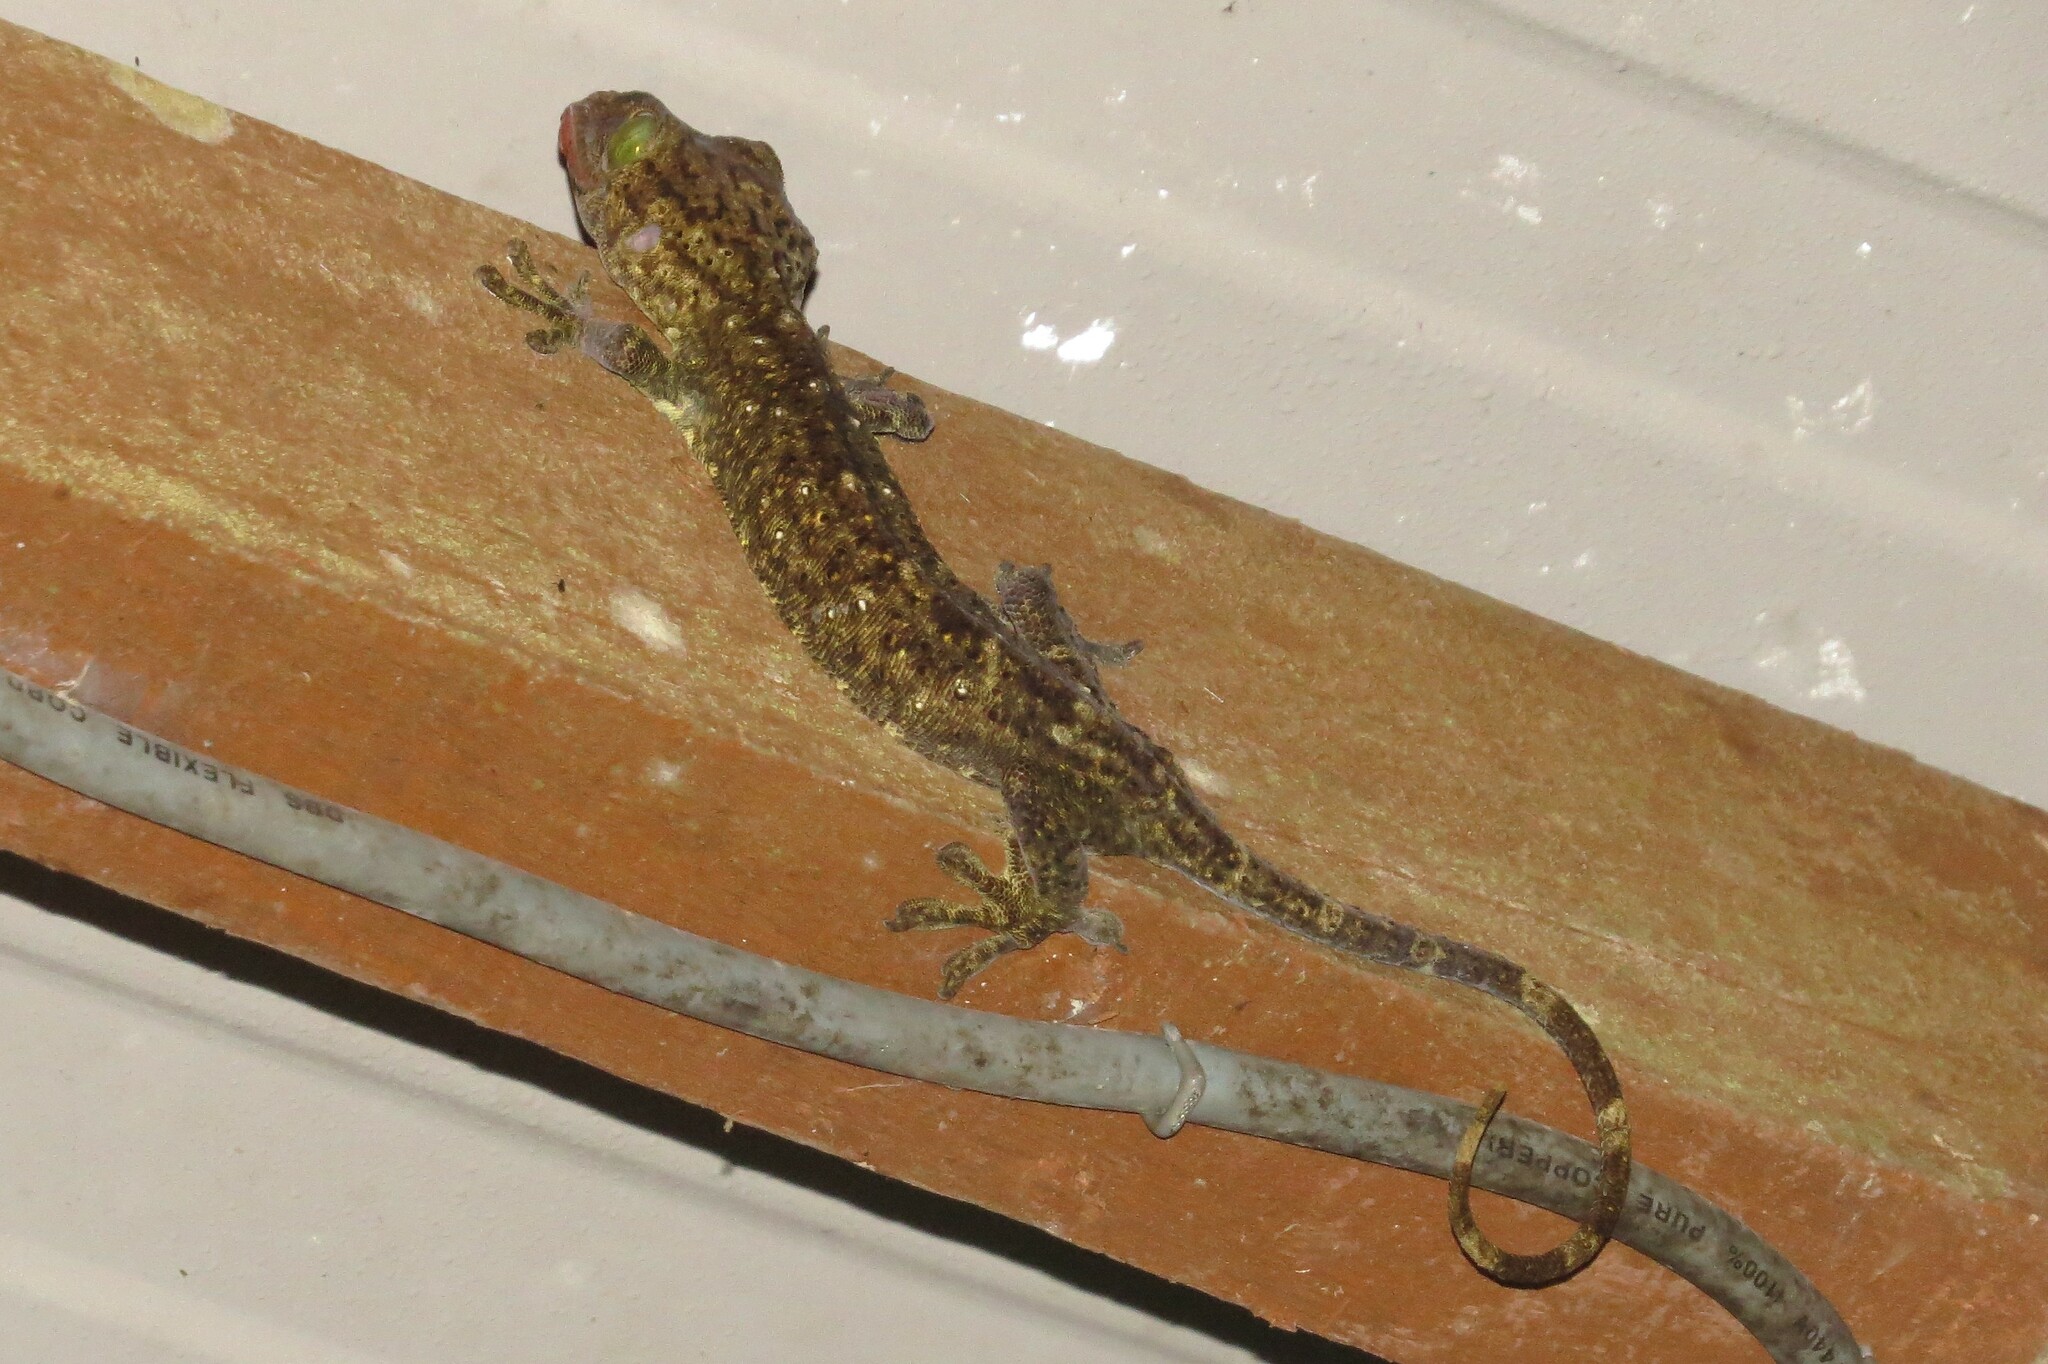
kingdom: Animalia
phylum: Chordata
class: Squamata
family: Gekkonidae
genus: Gekko
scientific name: Gekko albofasciolatus
